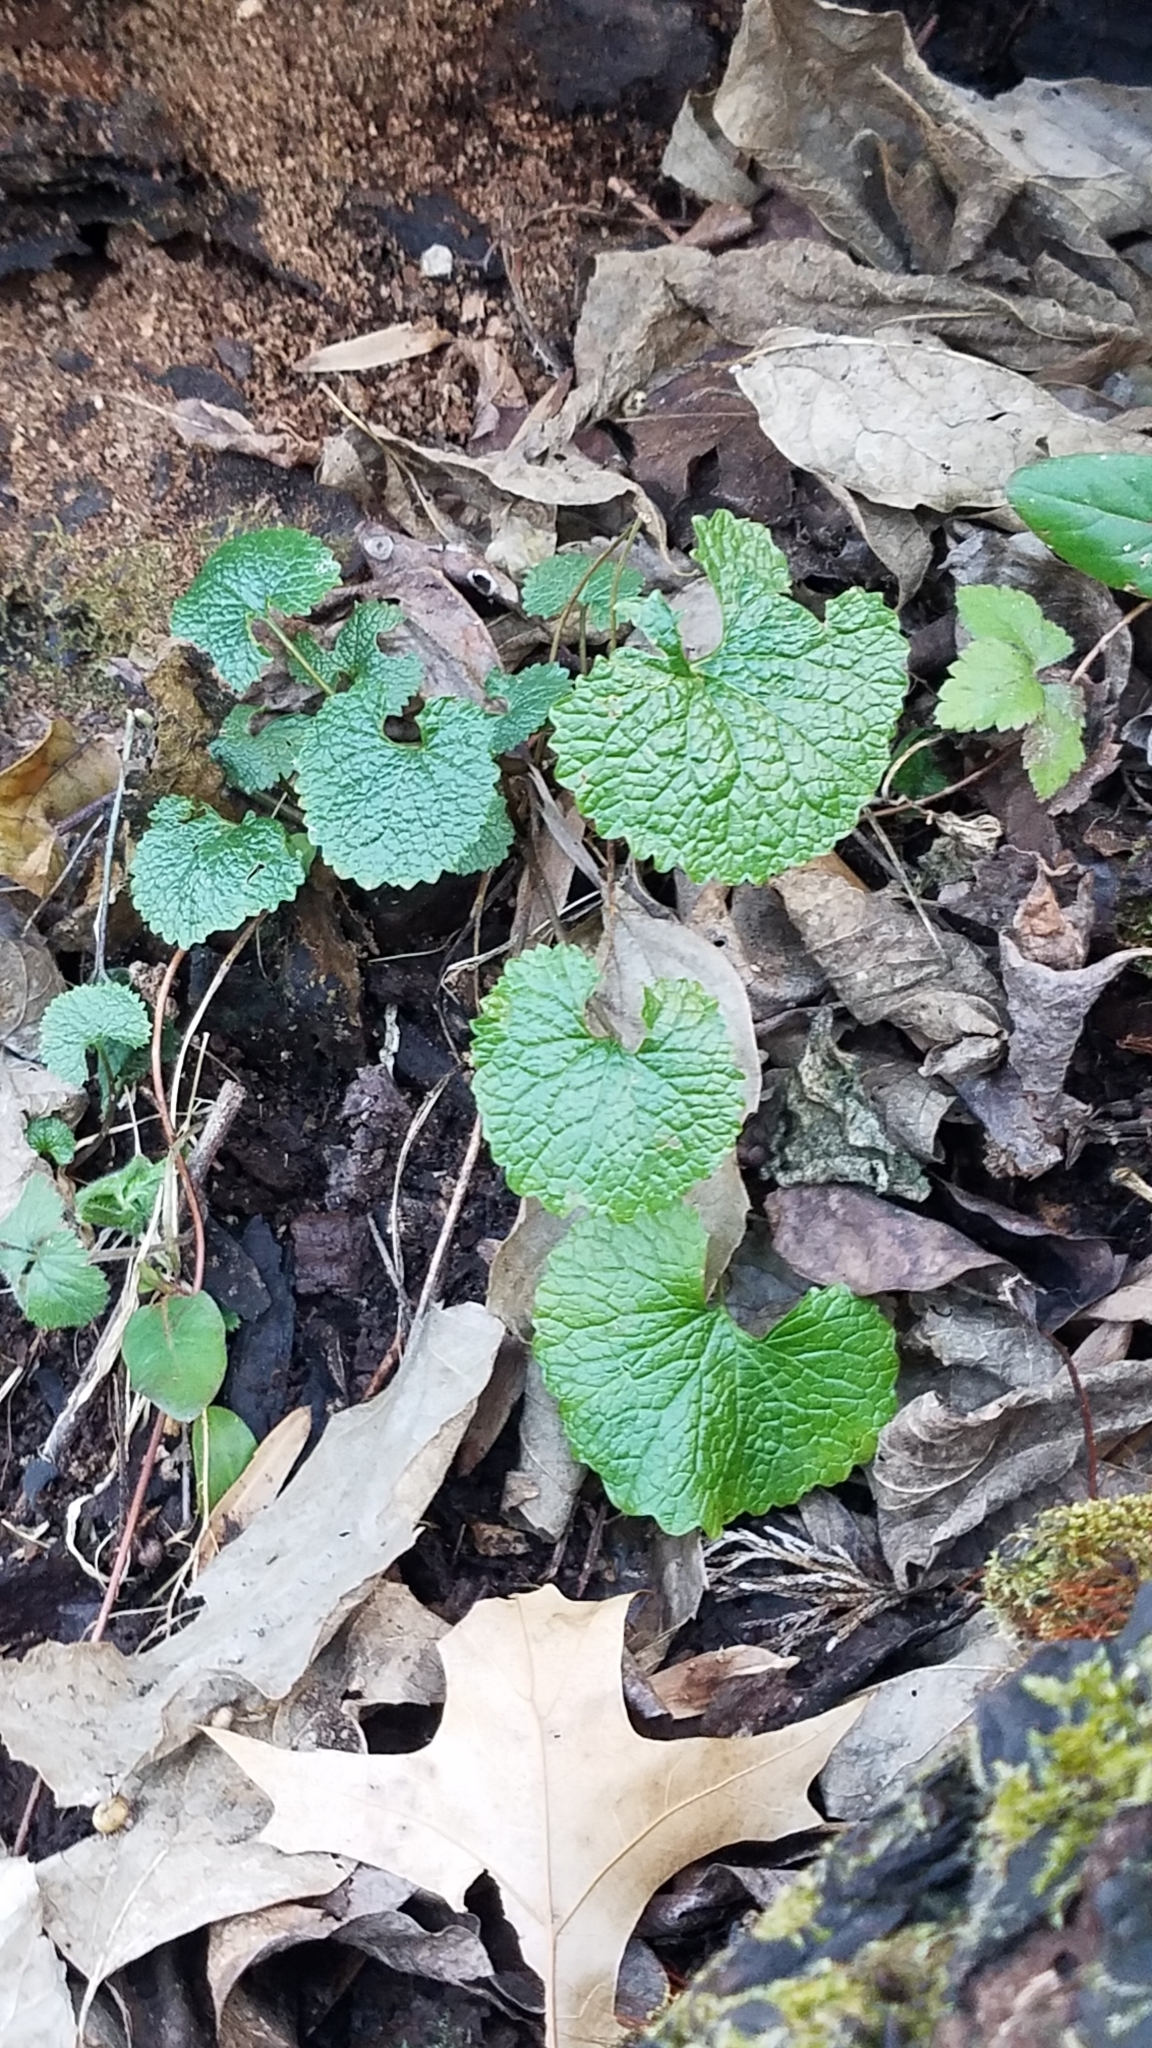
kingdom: Plantae
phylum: Tracheophyta
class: Magnoliopsida
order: Brassicales
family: Brassicaceae
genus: Alliaria
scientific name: Alliaria petiolata
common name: Garlic mustard
